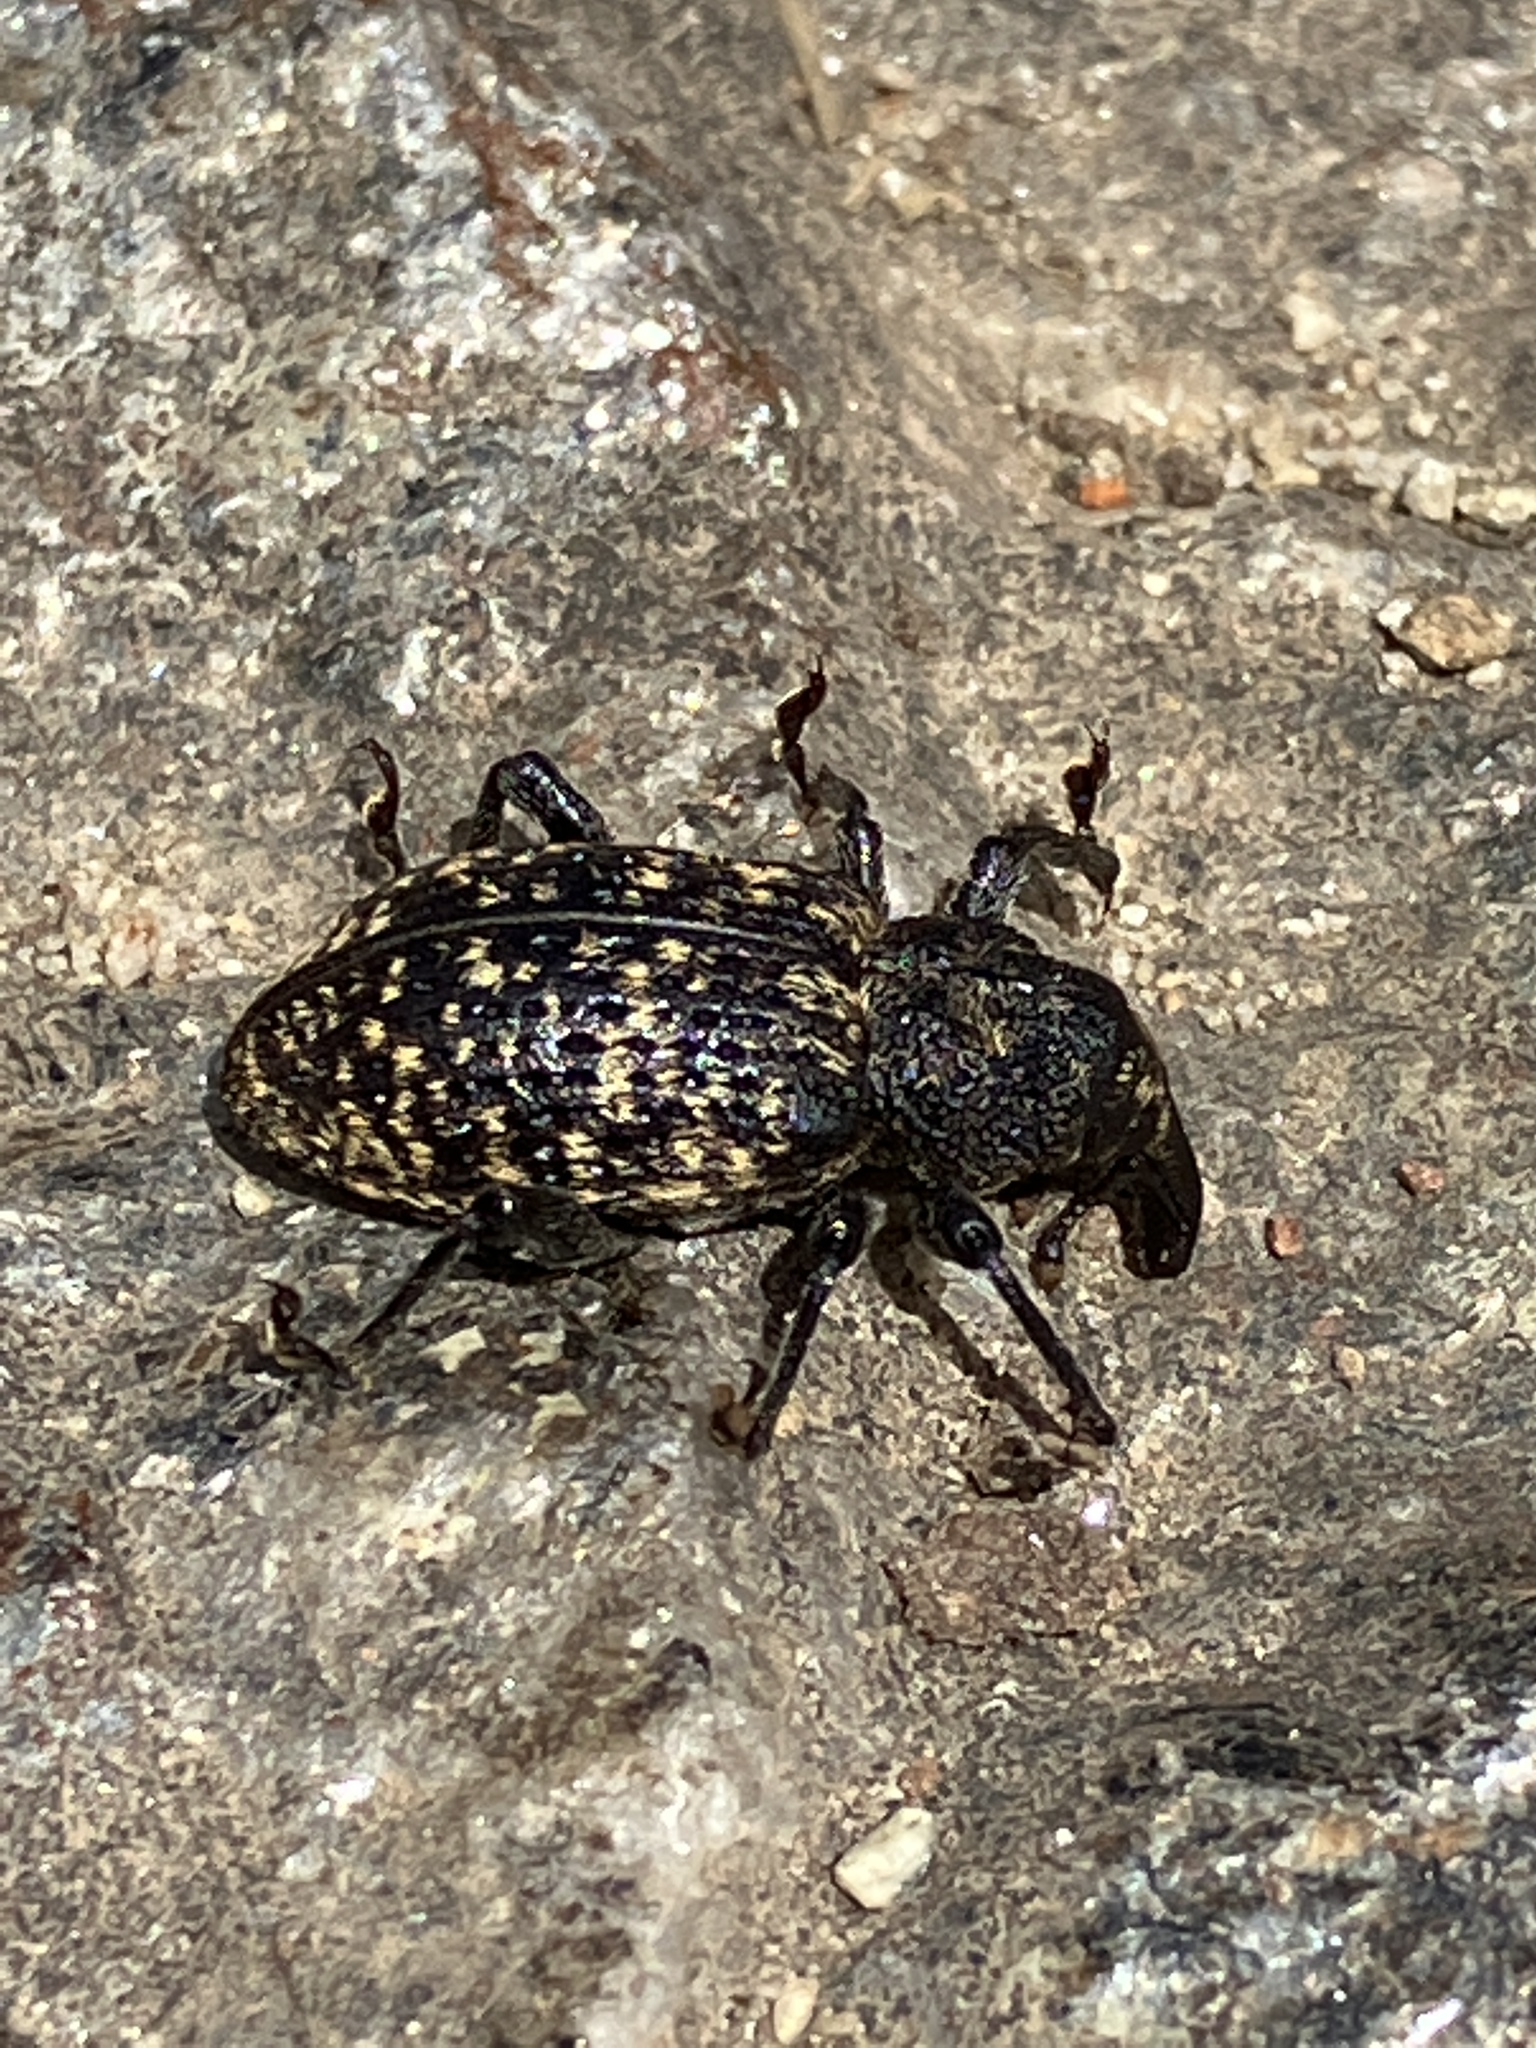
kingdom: Animalia
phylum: Arthropoda
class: Insecta
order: Coleoptera
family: Curculionidae
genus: Hylobius
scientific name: Hylobius excavatus
